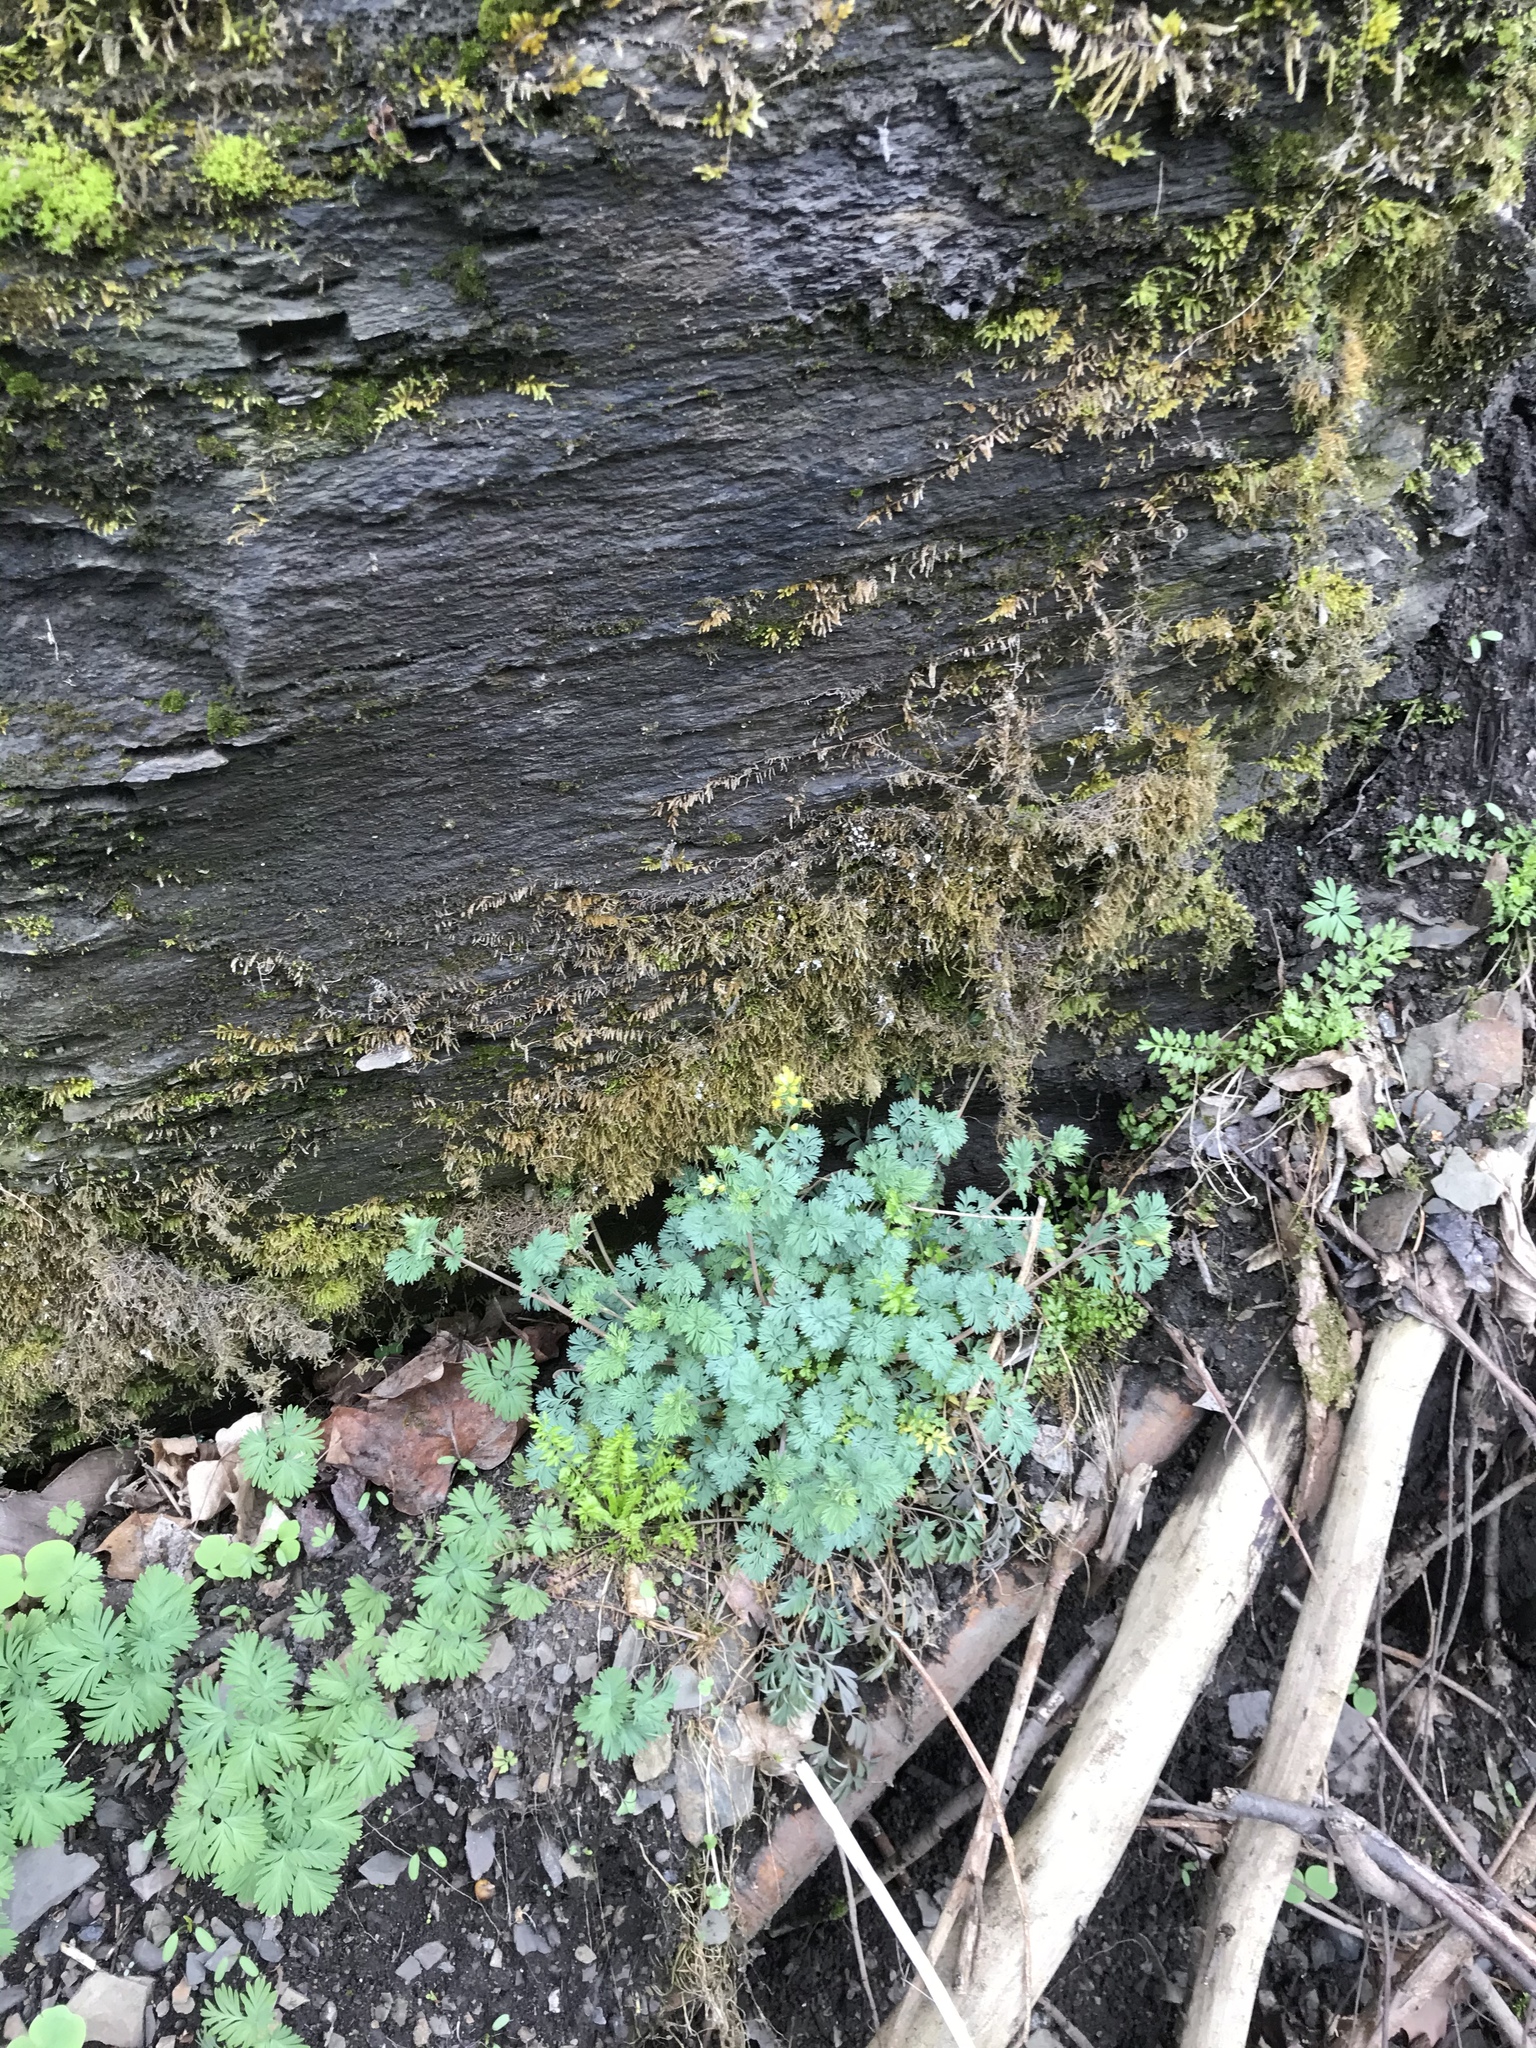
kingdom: Plantae
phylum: Tracheophyta
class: Magnoliopsida
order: Ranunculales
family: Papaveraceae
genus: Corydalis
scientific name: Corydalis flavula
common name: Yellow corydalis
